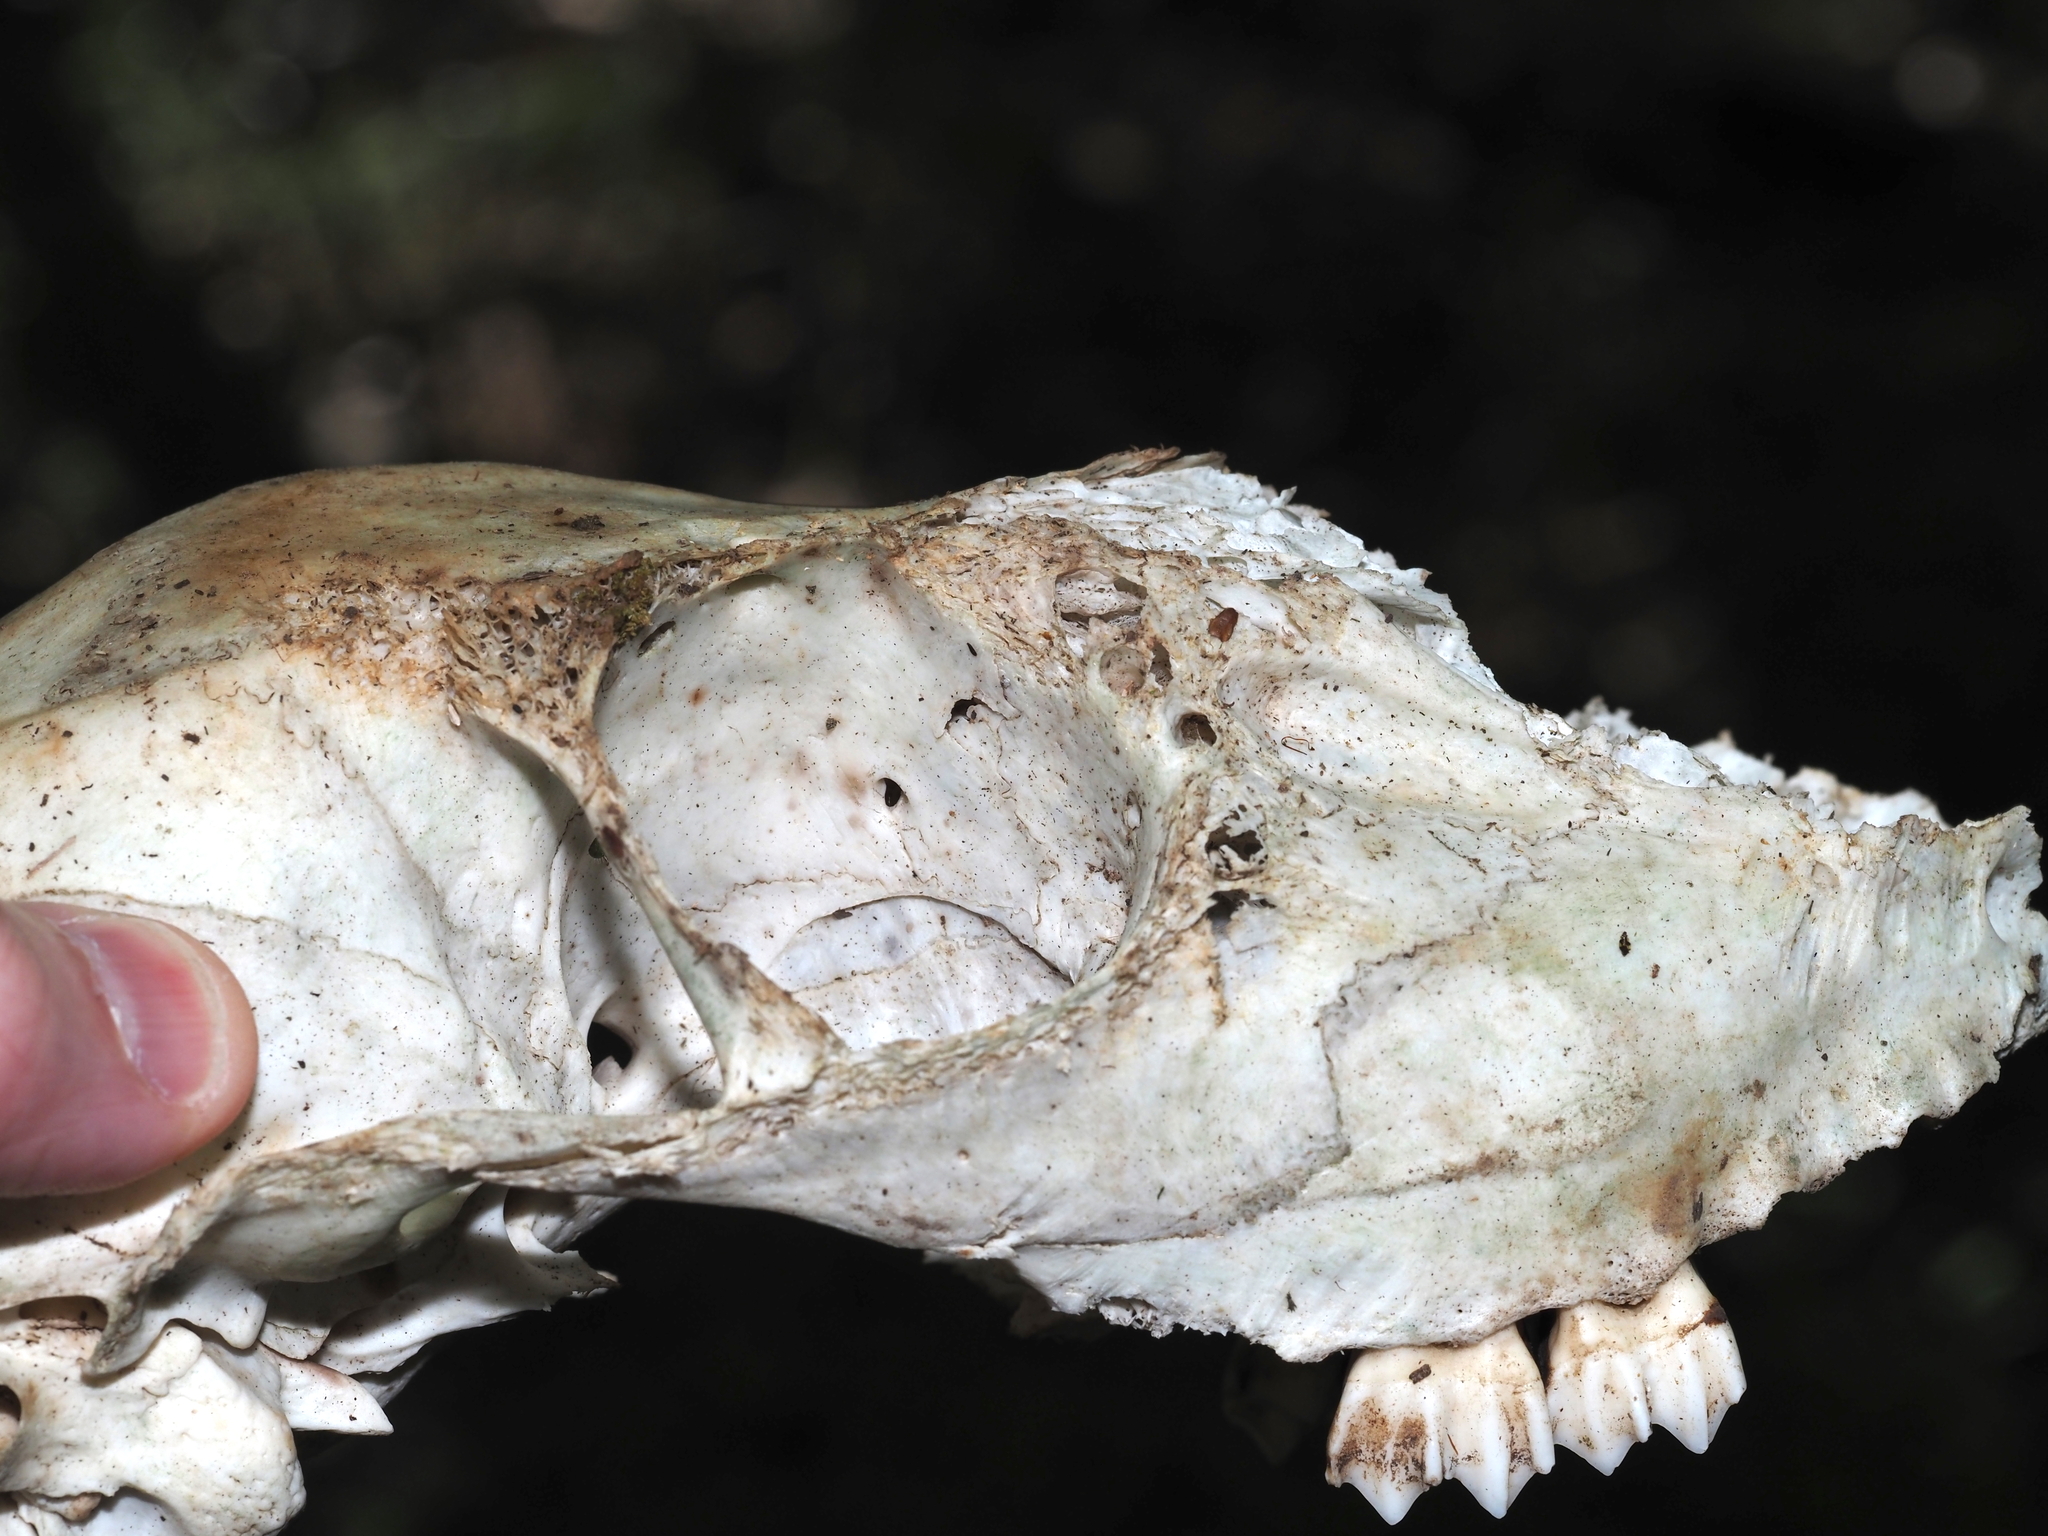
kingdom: Animalia
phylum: Chordata
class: Mammalia
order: Artiodactyla
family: Cervidae
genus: Odocoileus
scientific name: Odocoileus virginianus
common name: White-tailed deer
